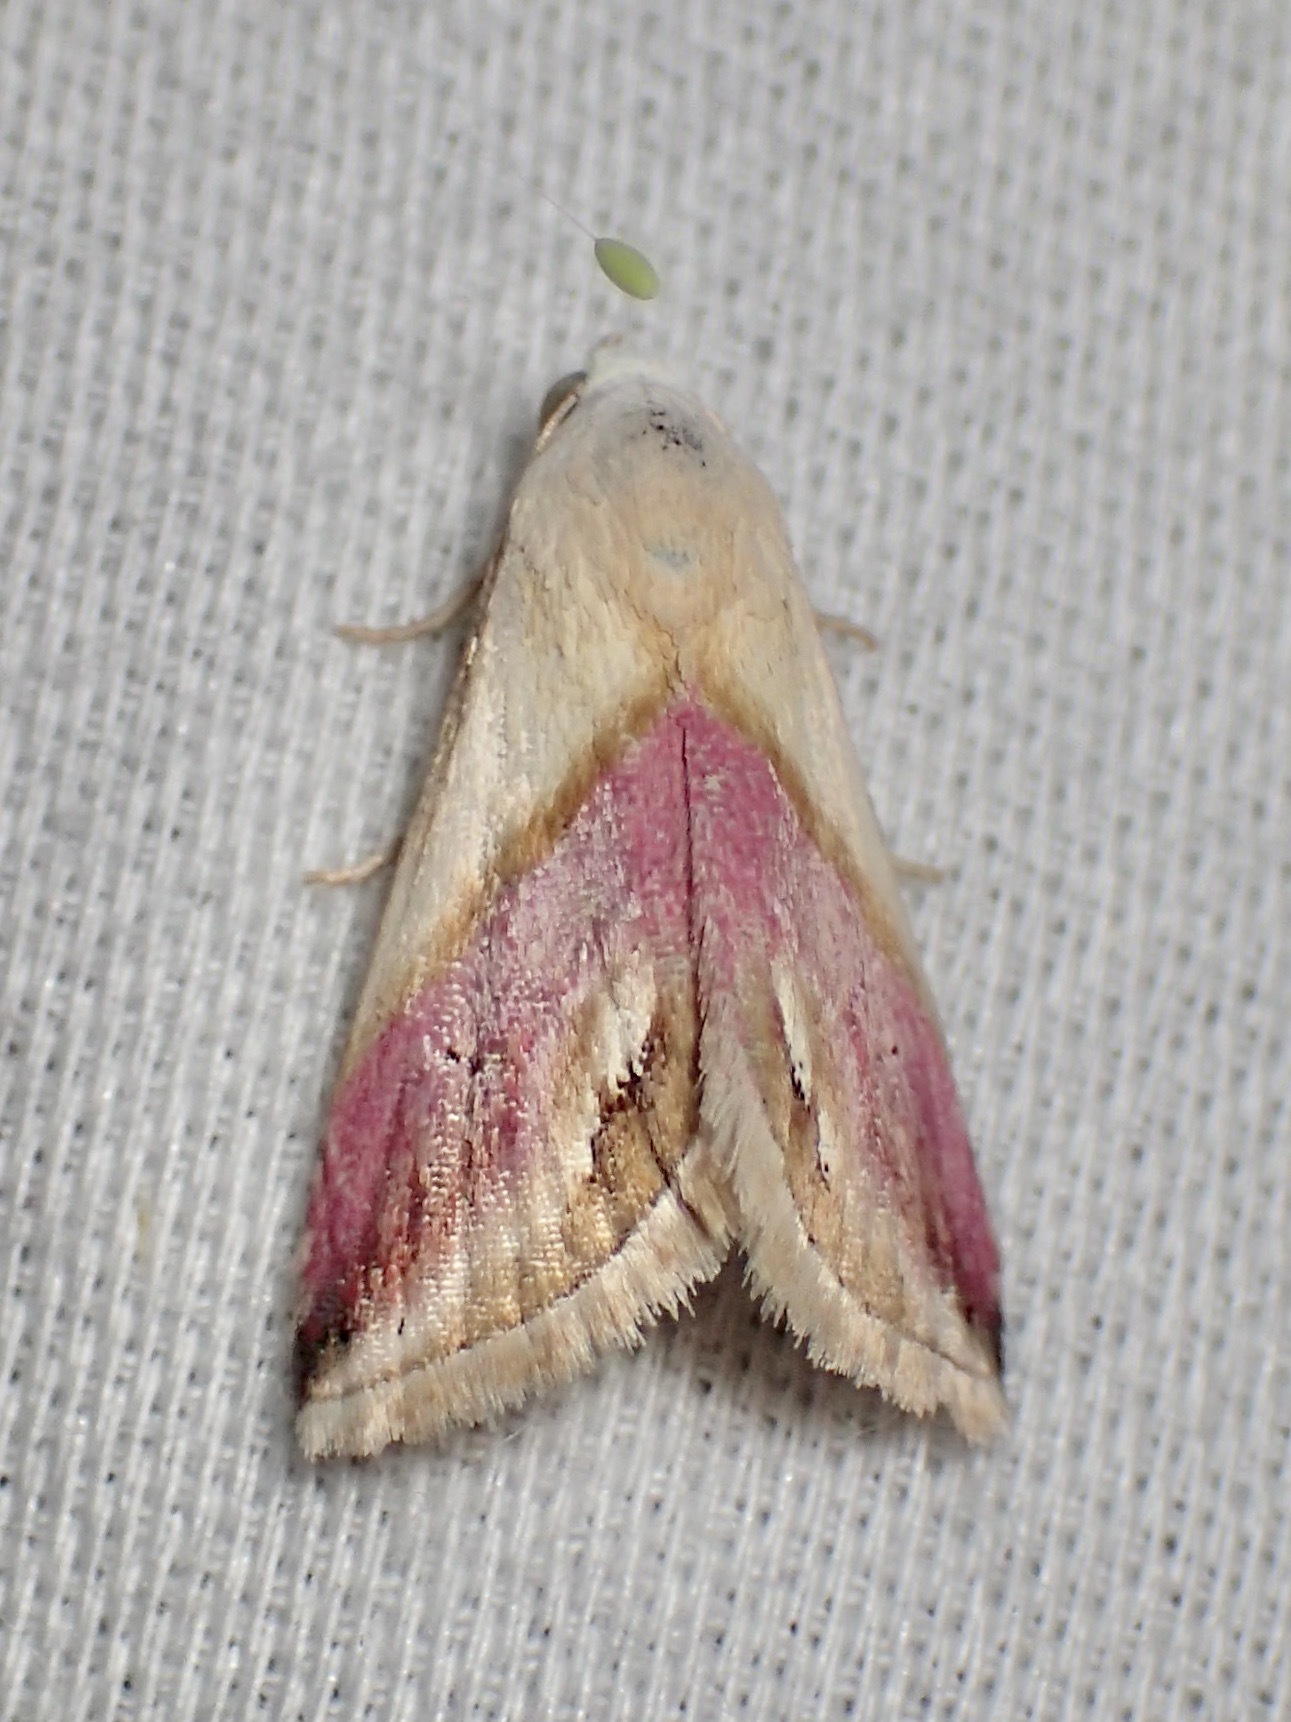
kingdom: Animalia
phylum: Arthropoda
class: Insecta
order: Lepidoptera
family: Noctuidae
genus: Eublemma
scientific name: Eublemma cochylioides
